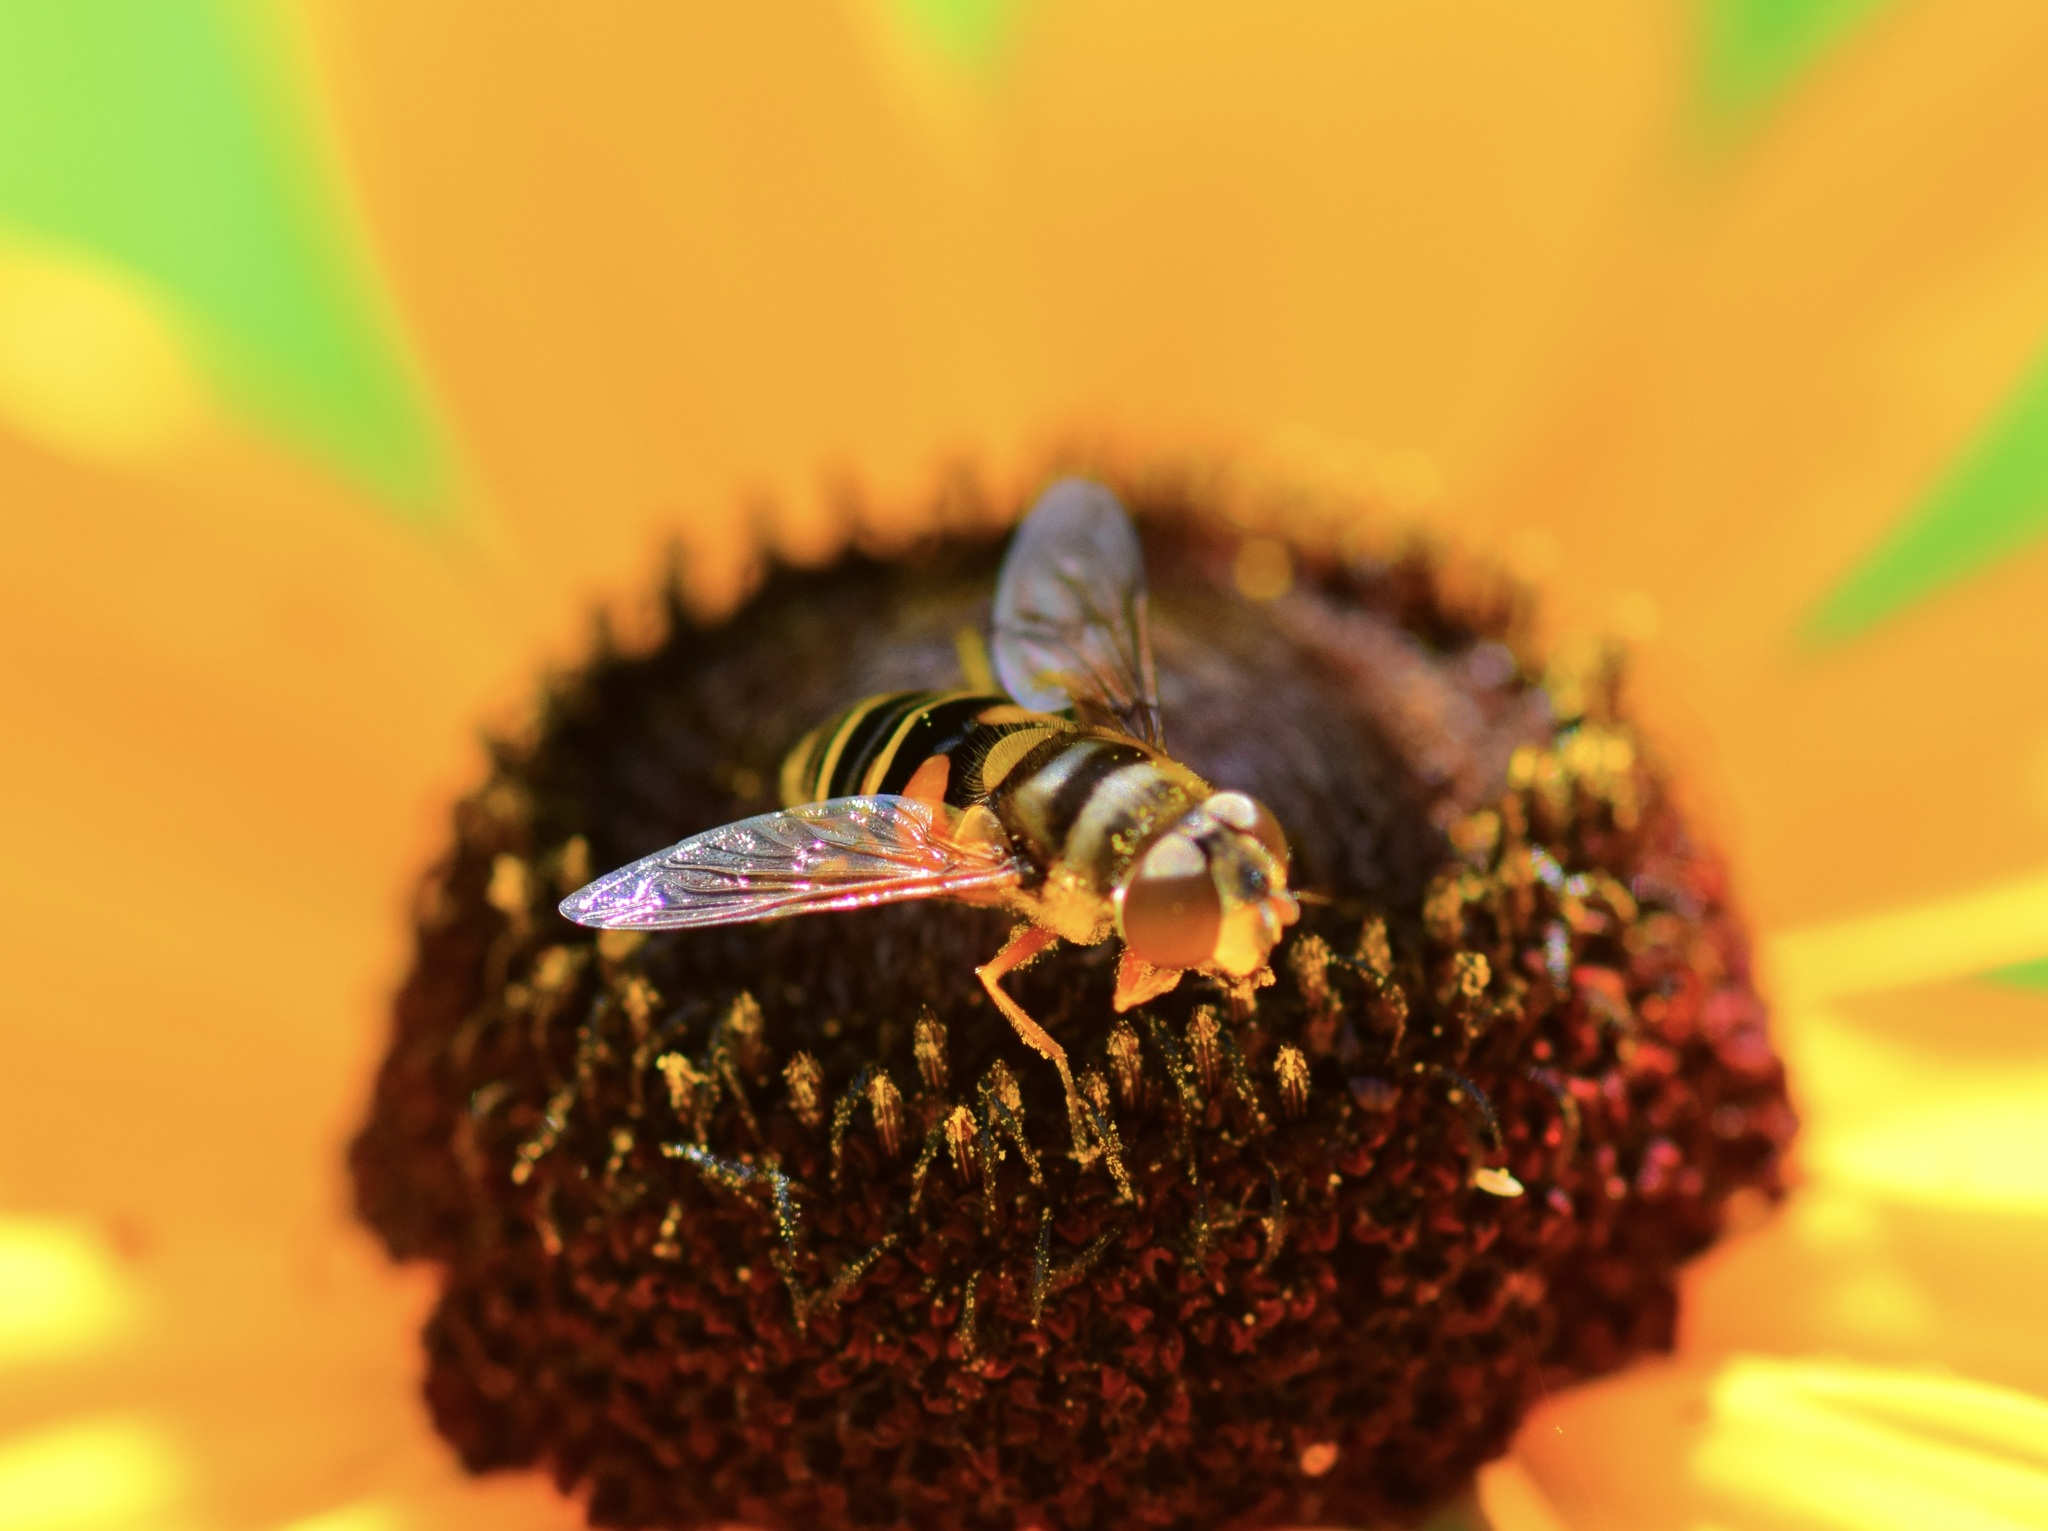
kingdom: Animalia
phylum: Arthropoda
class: Insecta
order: Diptera
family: Syrphidae
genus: Eristalis
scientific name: Eristalis transversa
